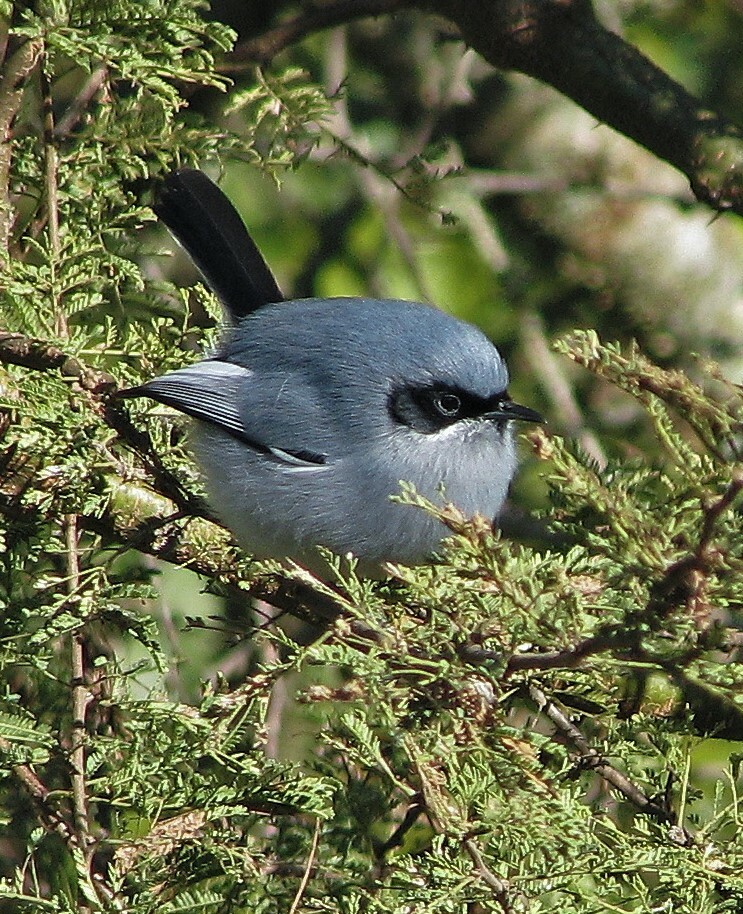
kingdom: Animalia
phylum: Chordata
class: Aves
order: Passeriformes
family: Polioptilidae
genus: Polioptila
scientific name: Polioptila dumicola
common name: Masked gnatcatcher
